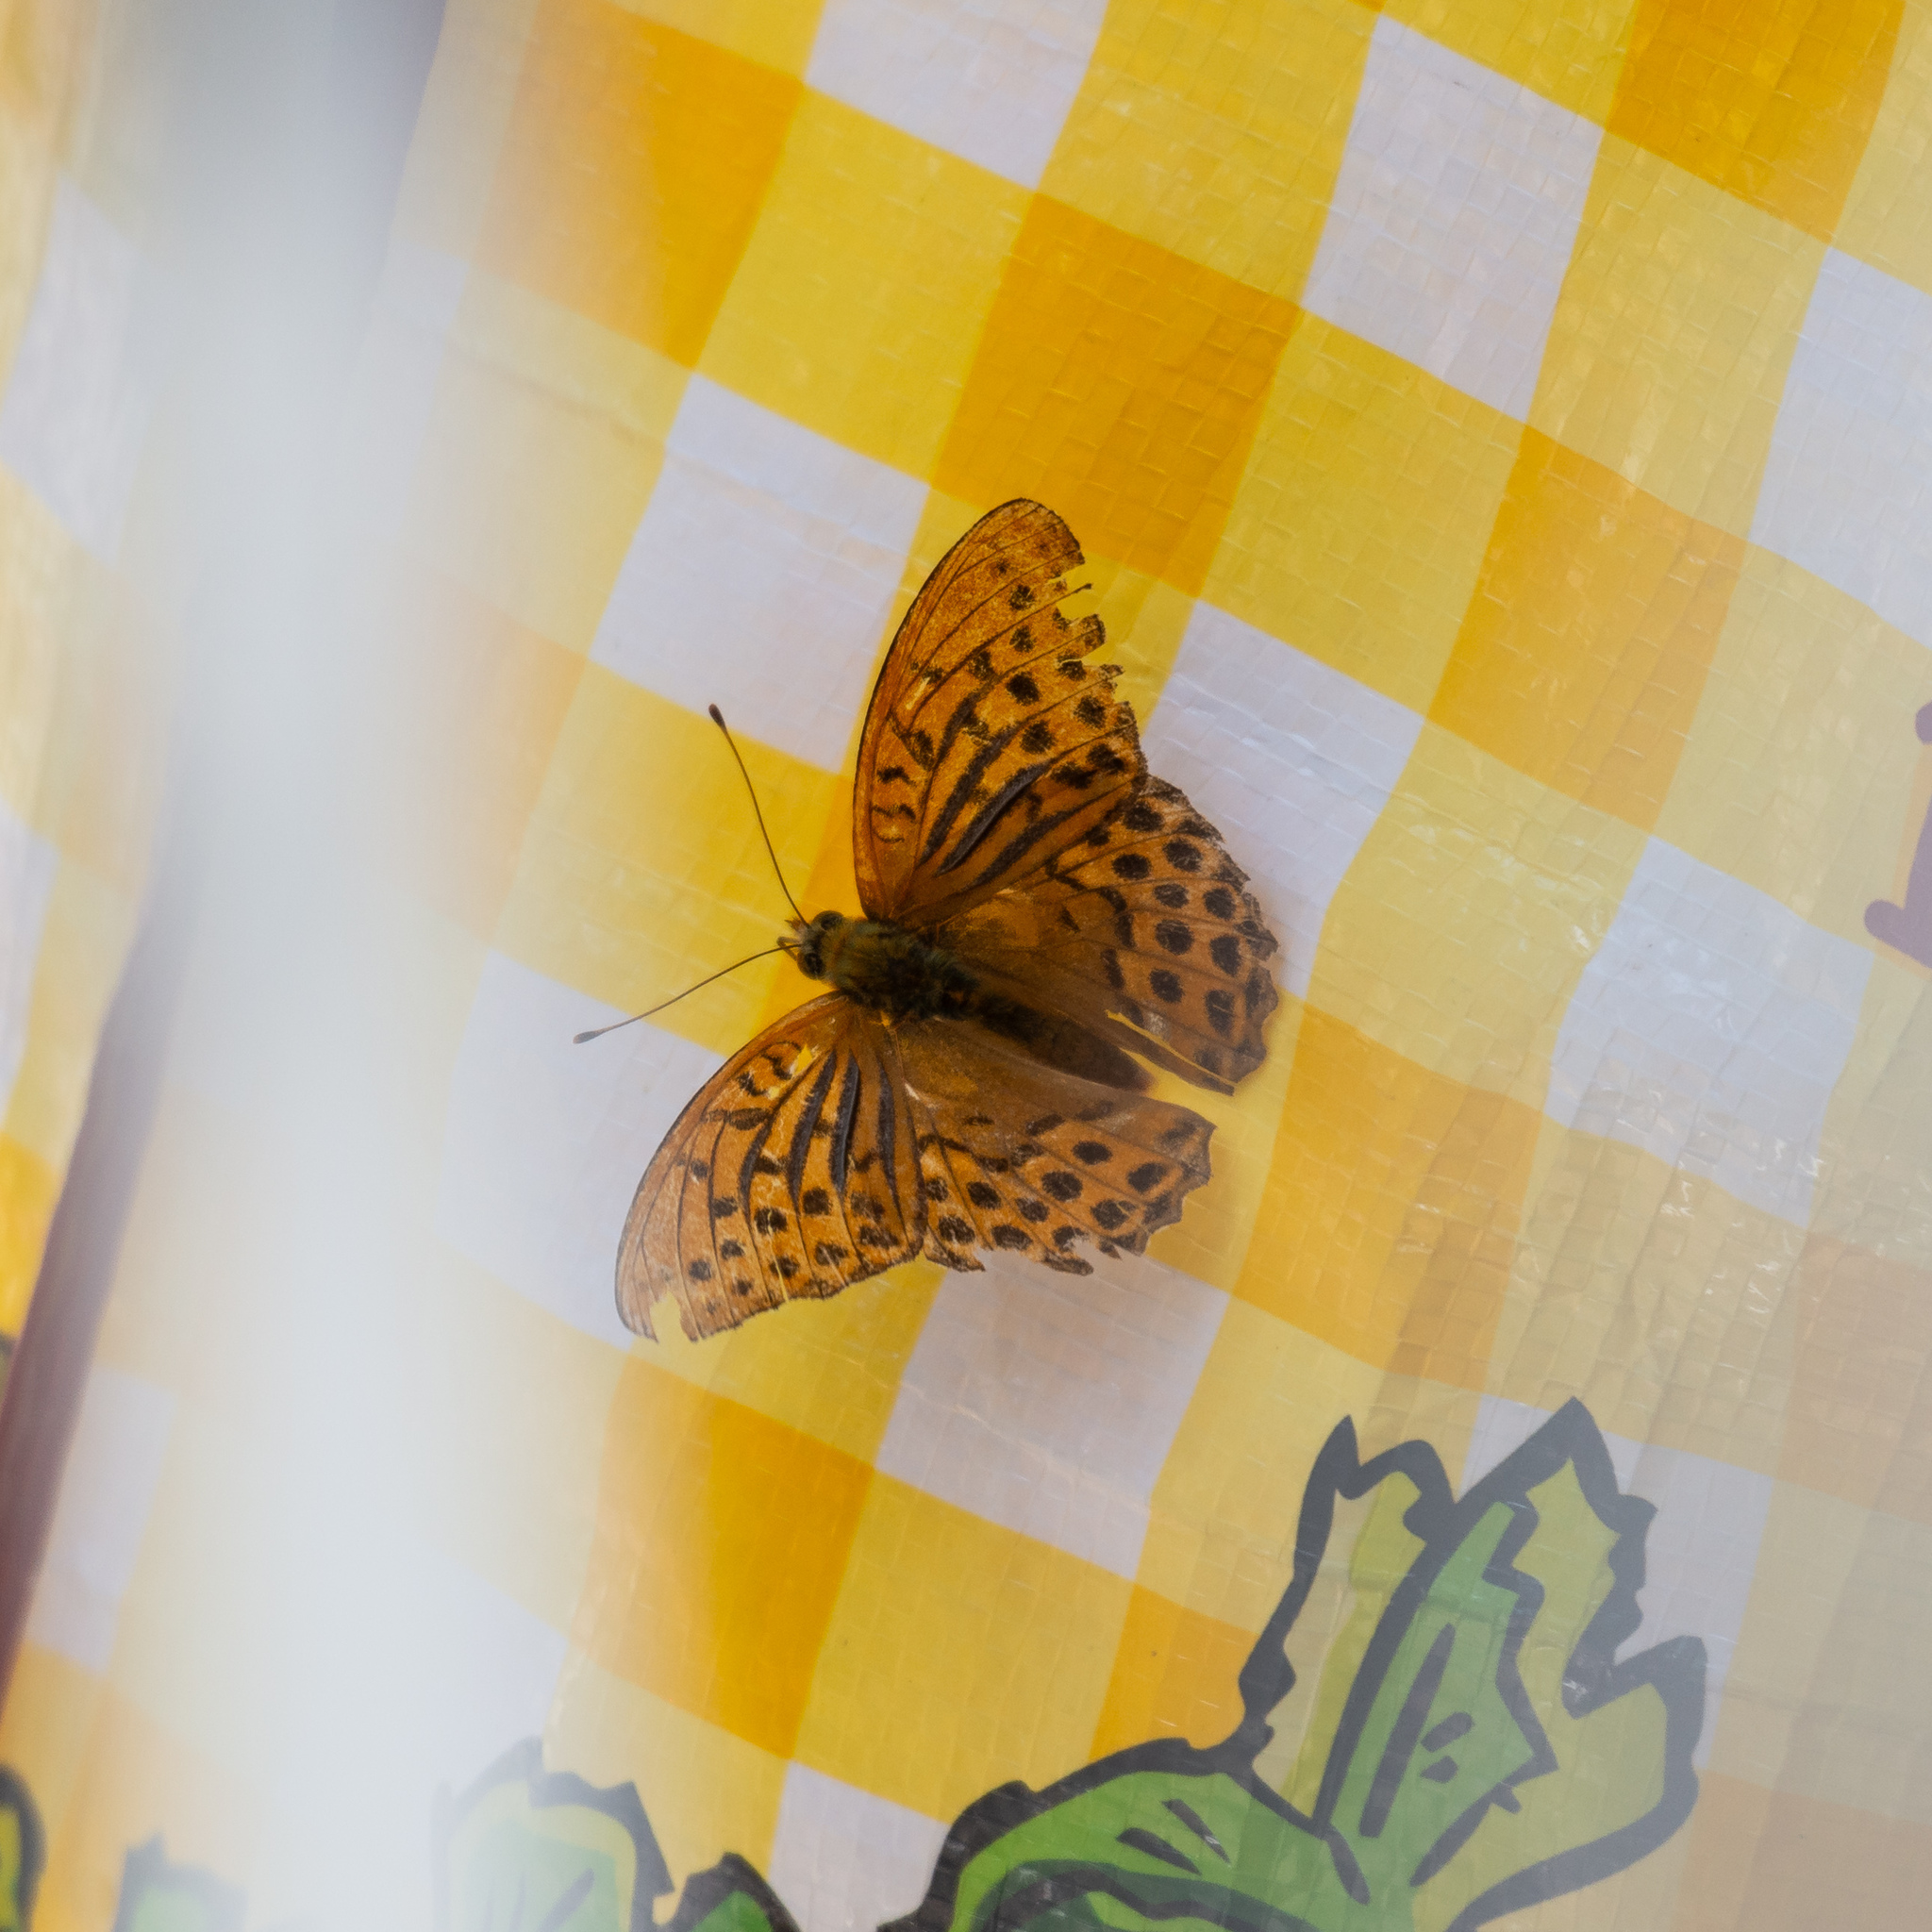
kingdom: Animalia
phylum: Arthropoda
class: Insecta
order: Lepidoptera
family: Nymphalidae
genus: Argynnis
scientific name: Argynnis paphia
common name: Silver-washed fritillary
